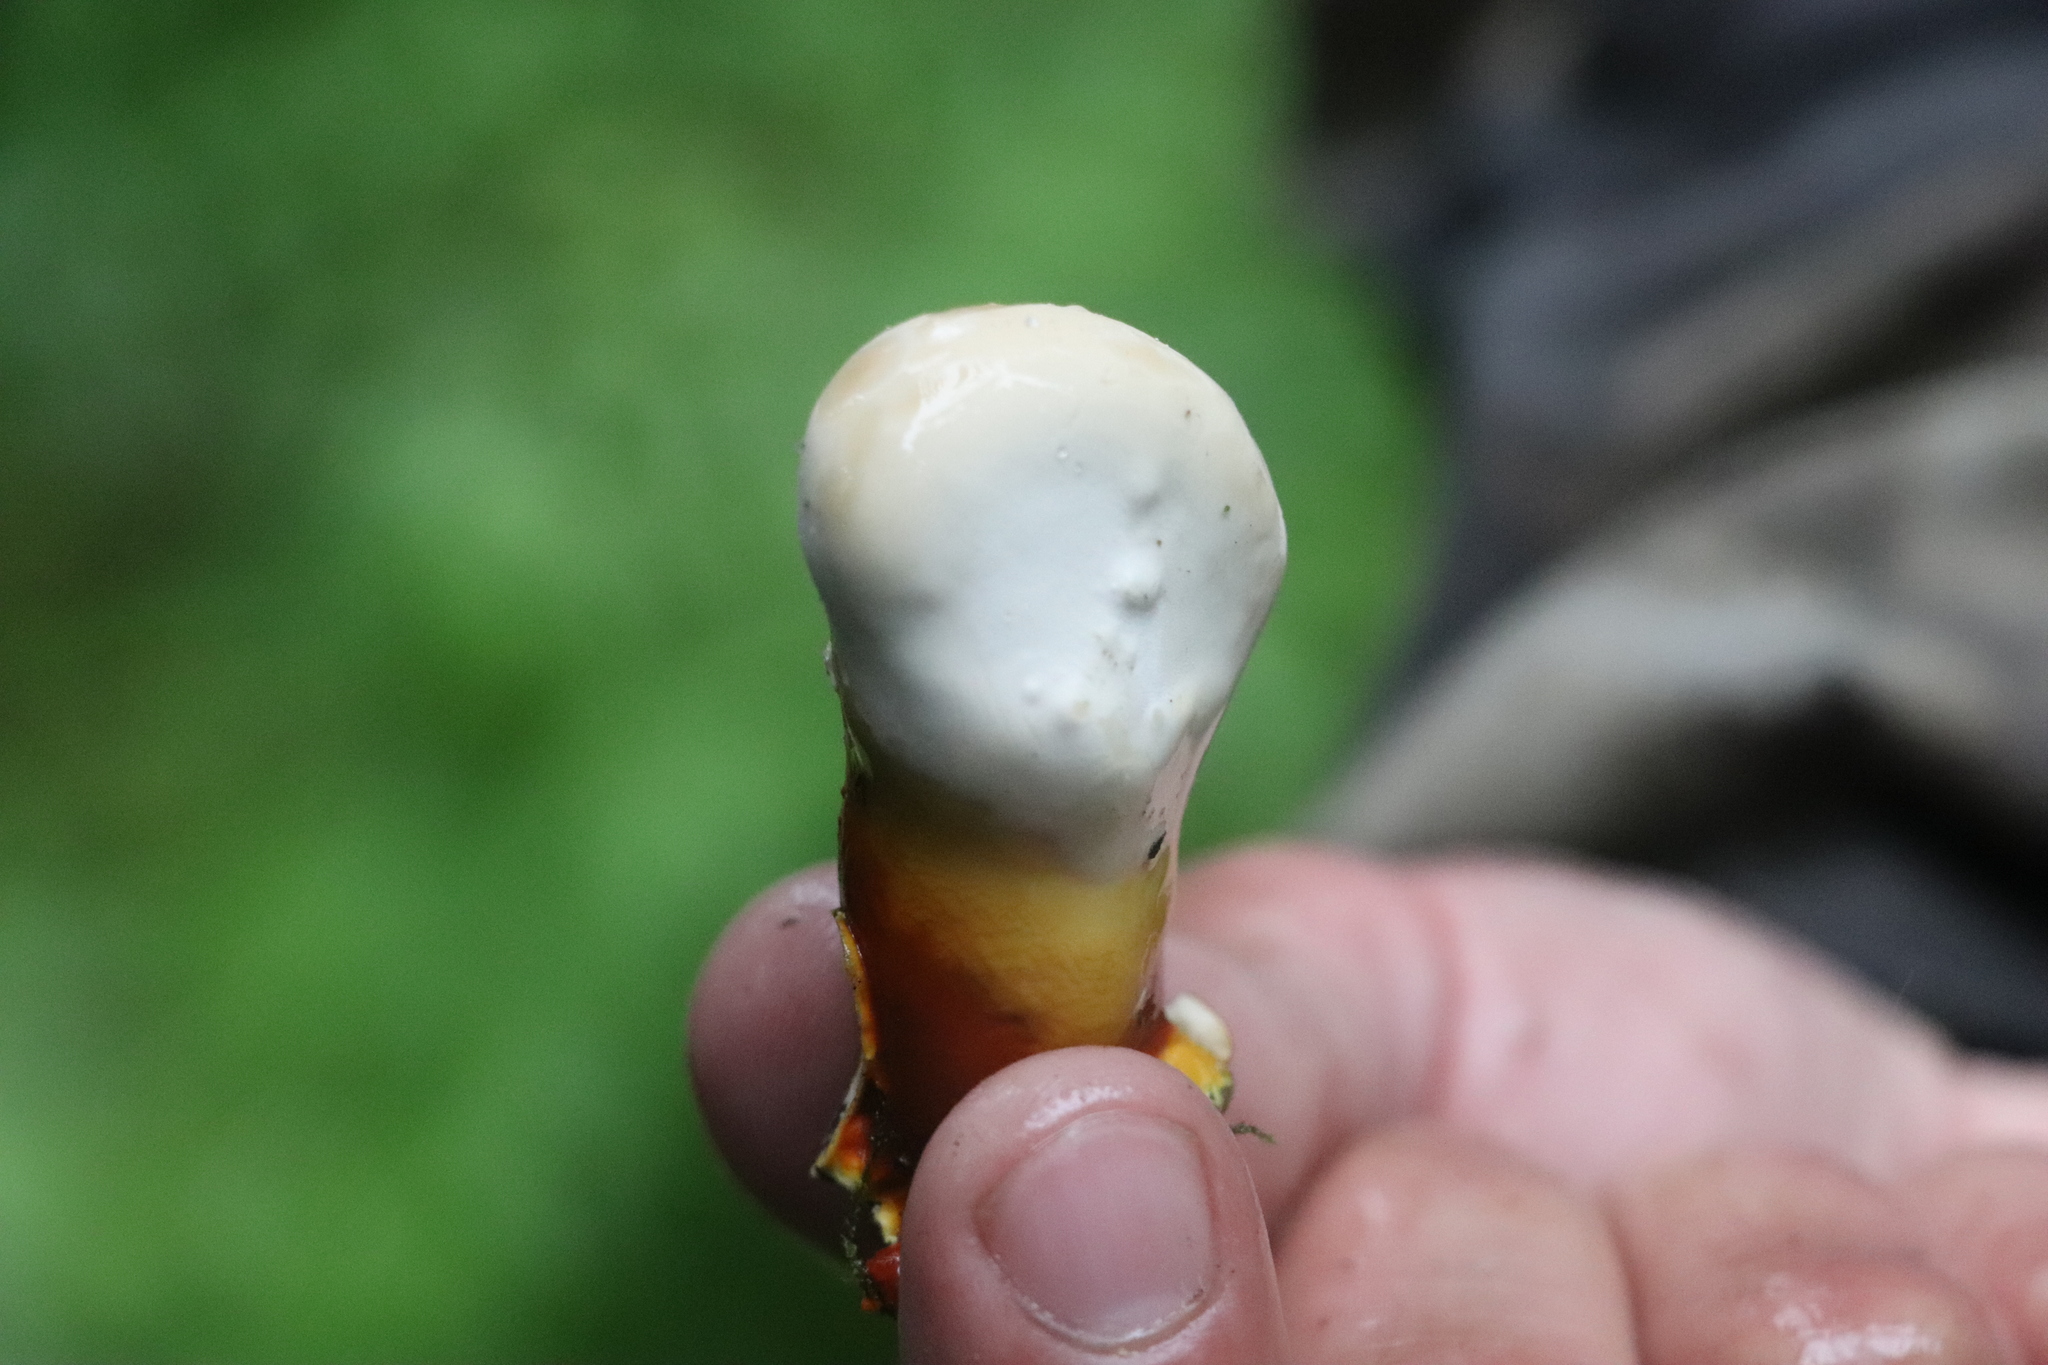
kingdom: Fungi
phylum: Basidiomycota
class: Agaricomycetes
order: Polyporales
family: Polyporaceae
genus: Ganoderma
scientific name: Ganoderma lucidum
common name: Lacquered bracket
